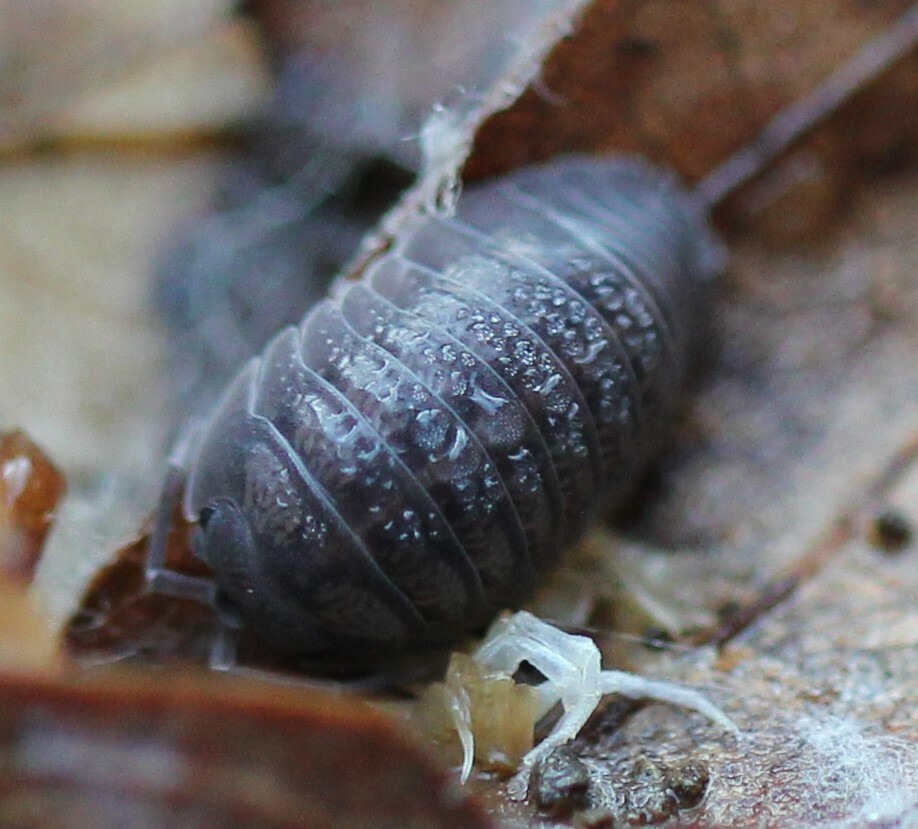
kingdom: Animalia
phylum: Arthropoda
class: Malacostraca
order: Isopoda
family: Armadillidiidae
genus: Armadillidium
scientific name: Armadillidium nasatum
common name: Isopod
